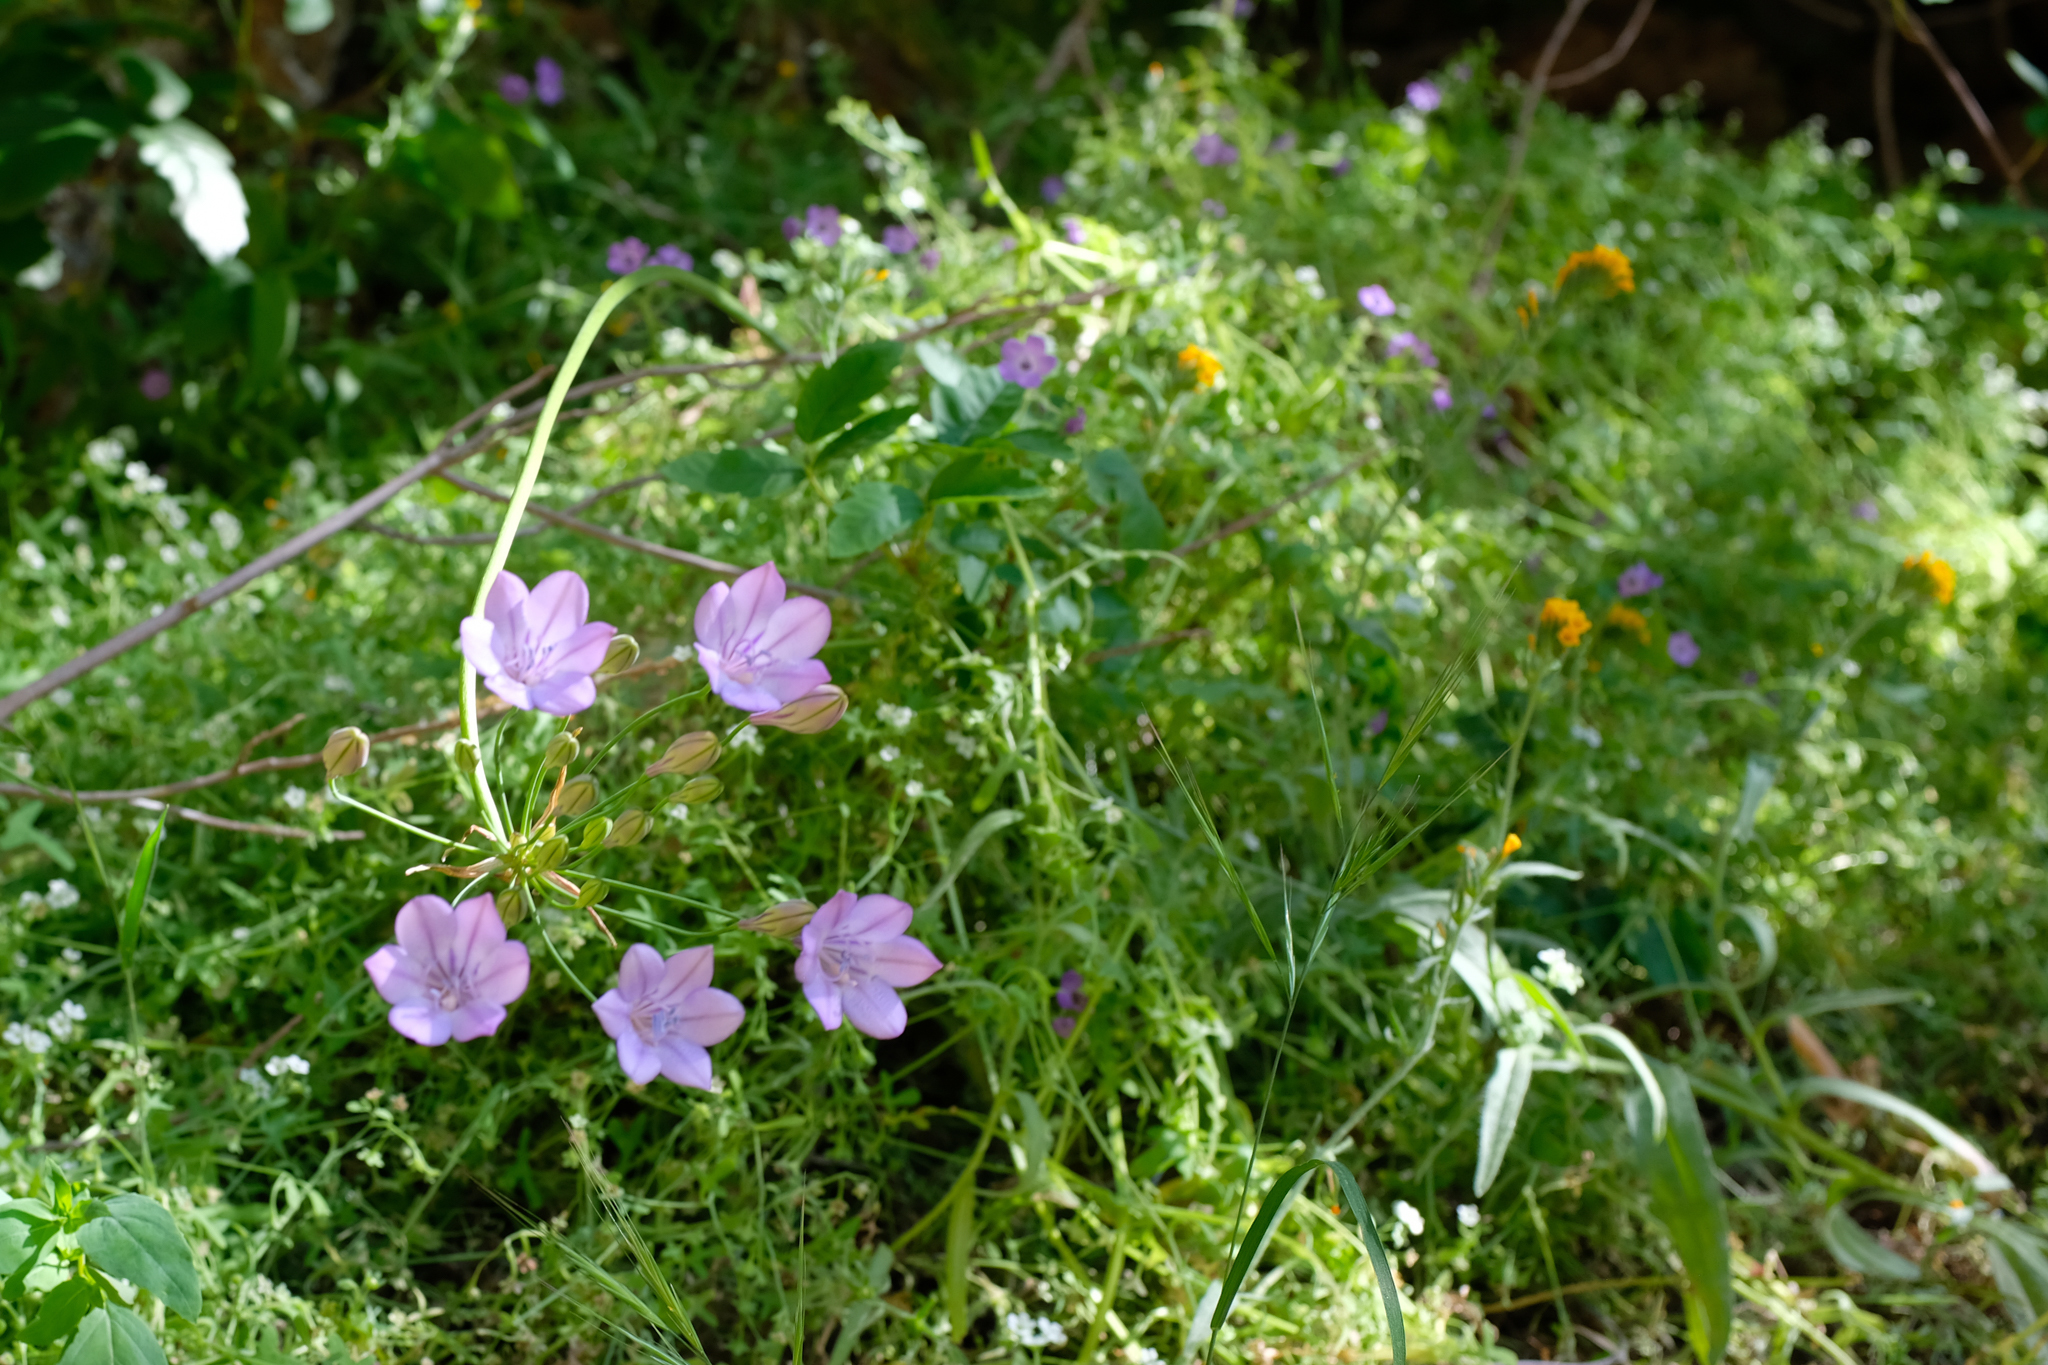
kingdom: Plantae
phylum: Tracheophyta
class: Liliopsida
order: Asparagales
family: Asparagaceae
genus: Triteleia
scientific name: Triteleia laxa
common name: Triplet-lily
